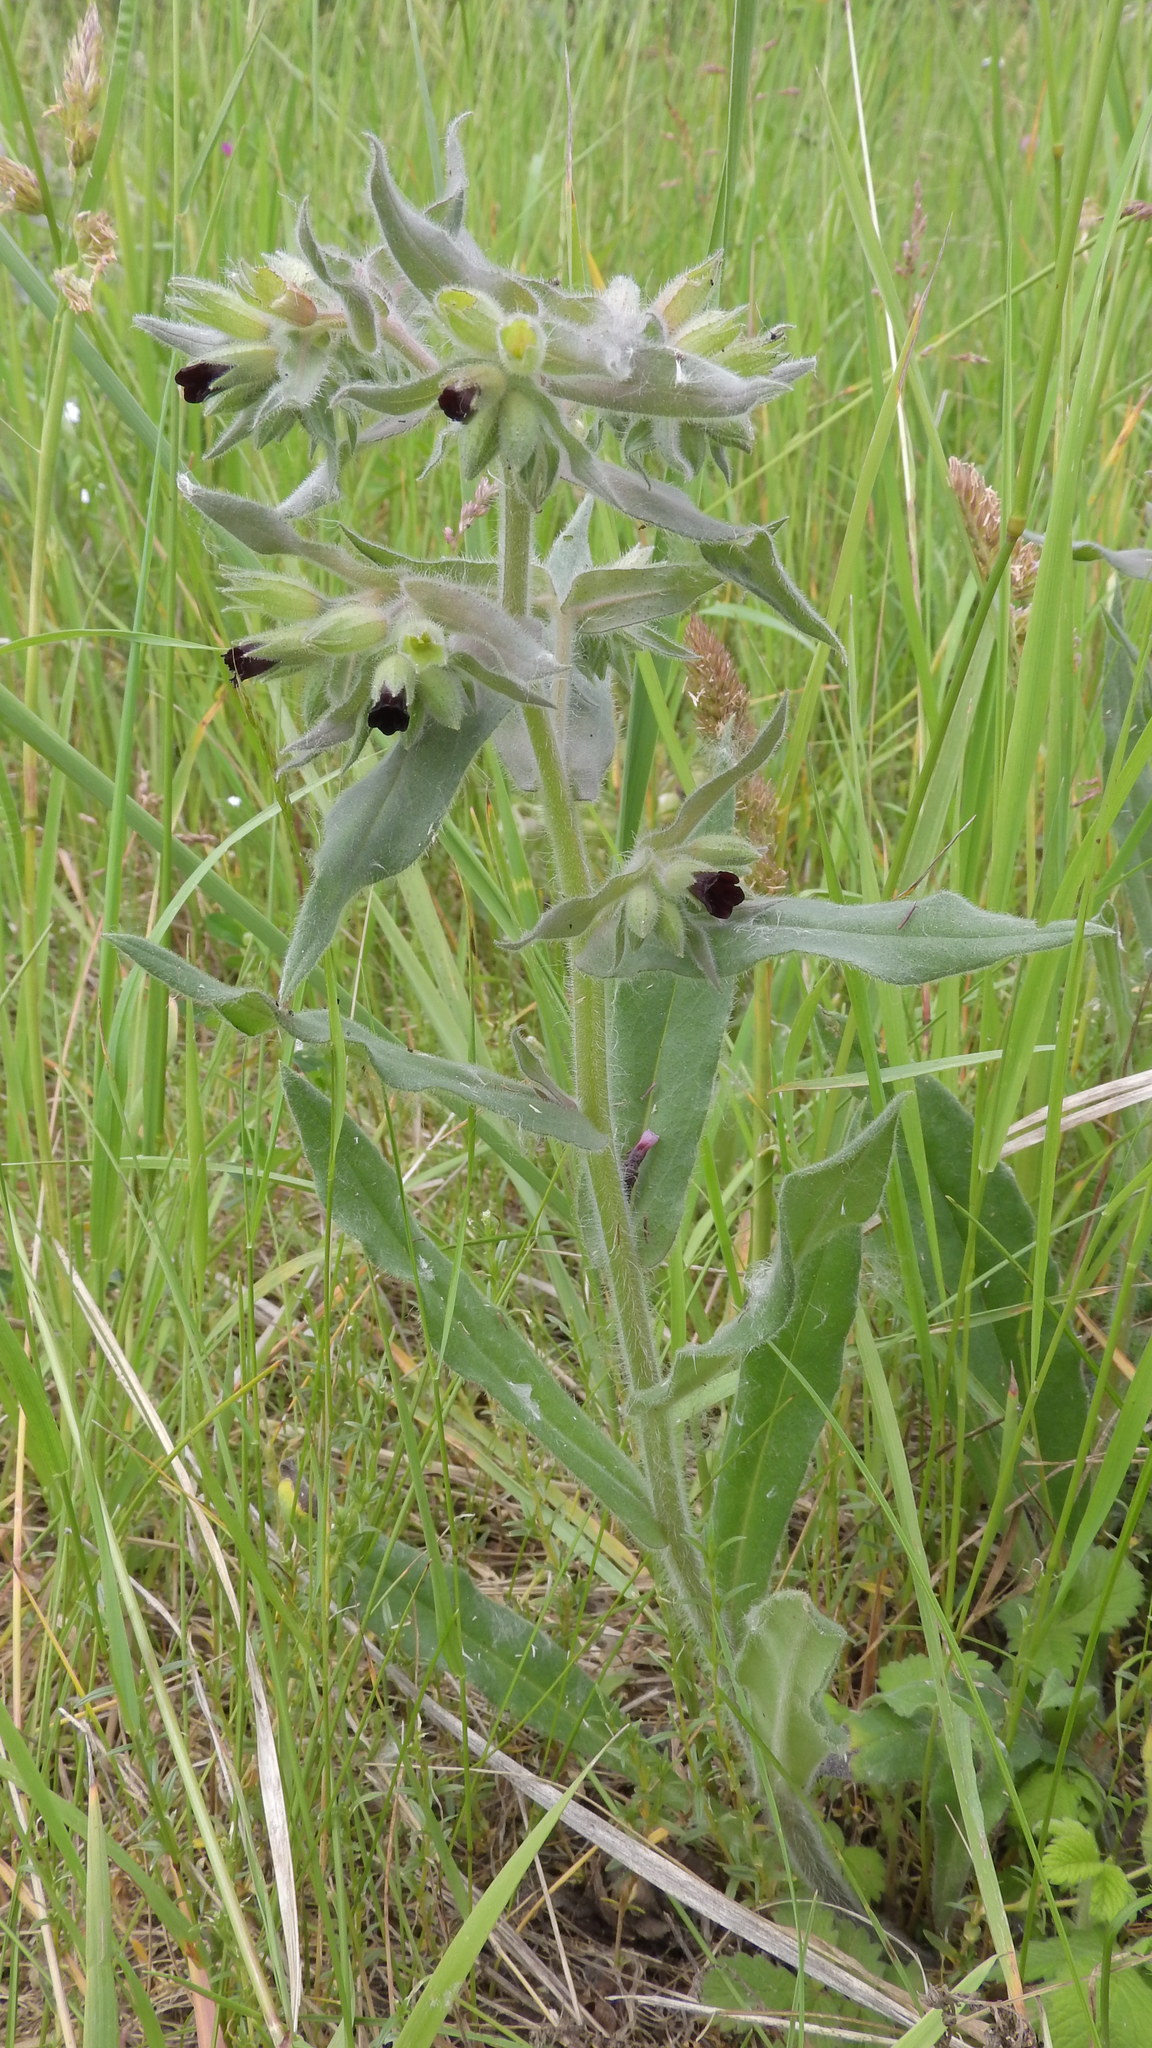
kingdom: Plantae
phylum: Tracheophyta
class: Magnoliopsida
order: Boraginales
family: Boraginaceae
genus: Nonea
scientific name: Nonea pulla
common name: Brown nonea
